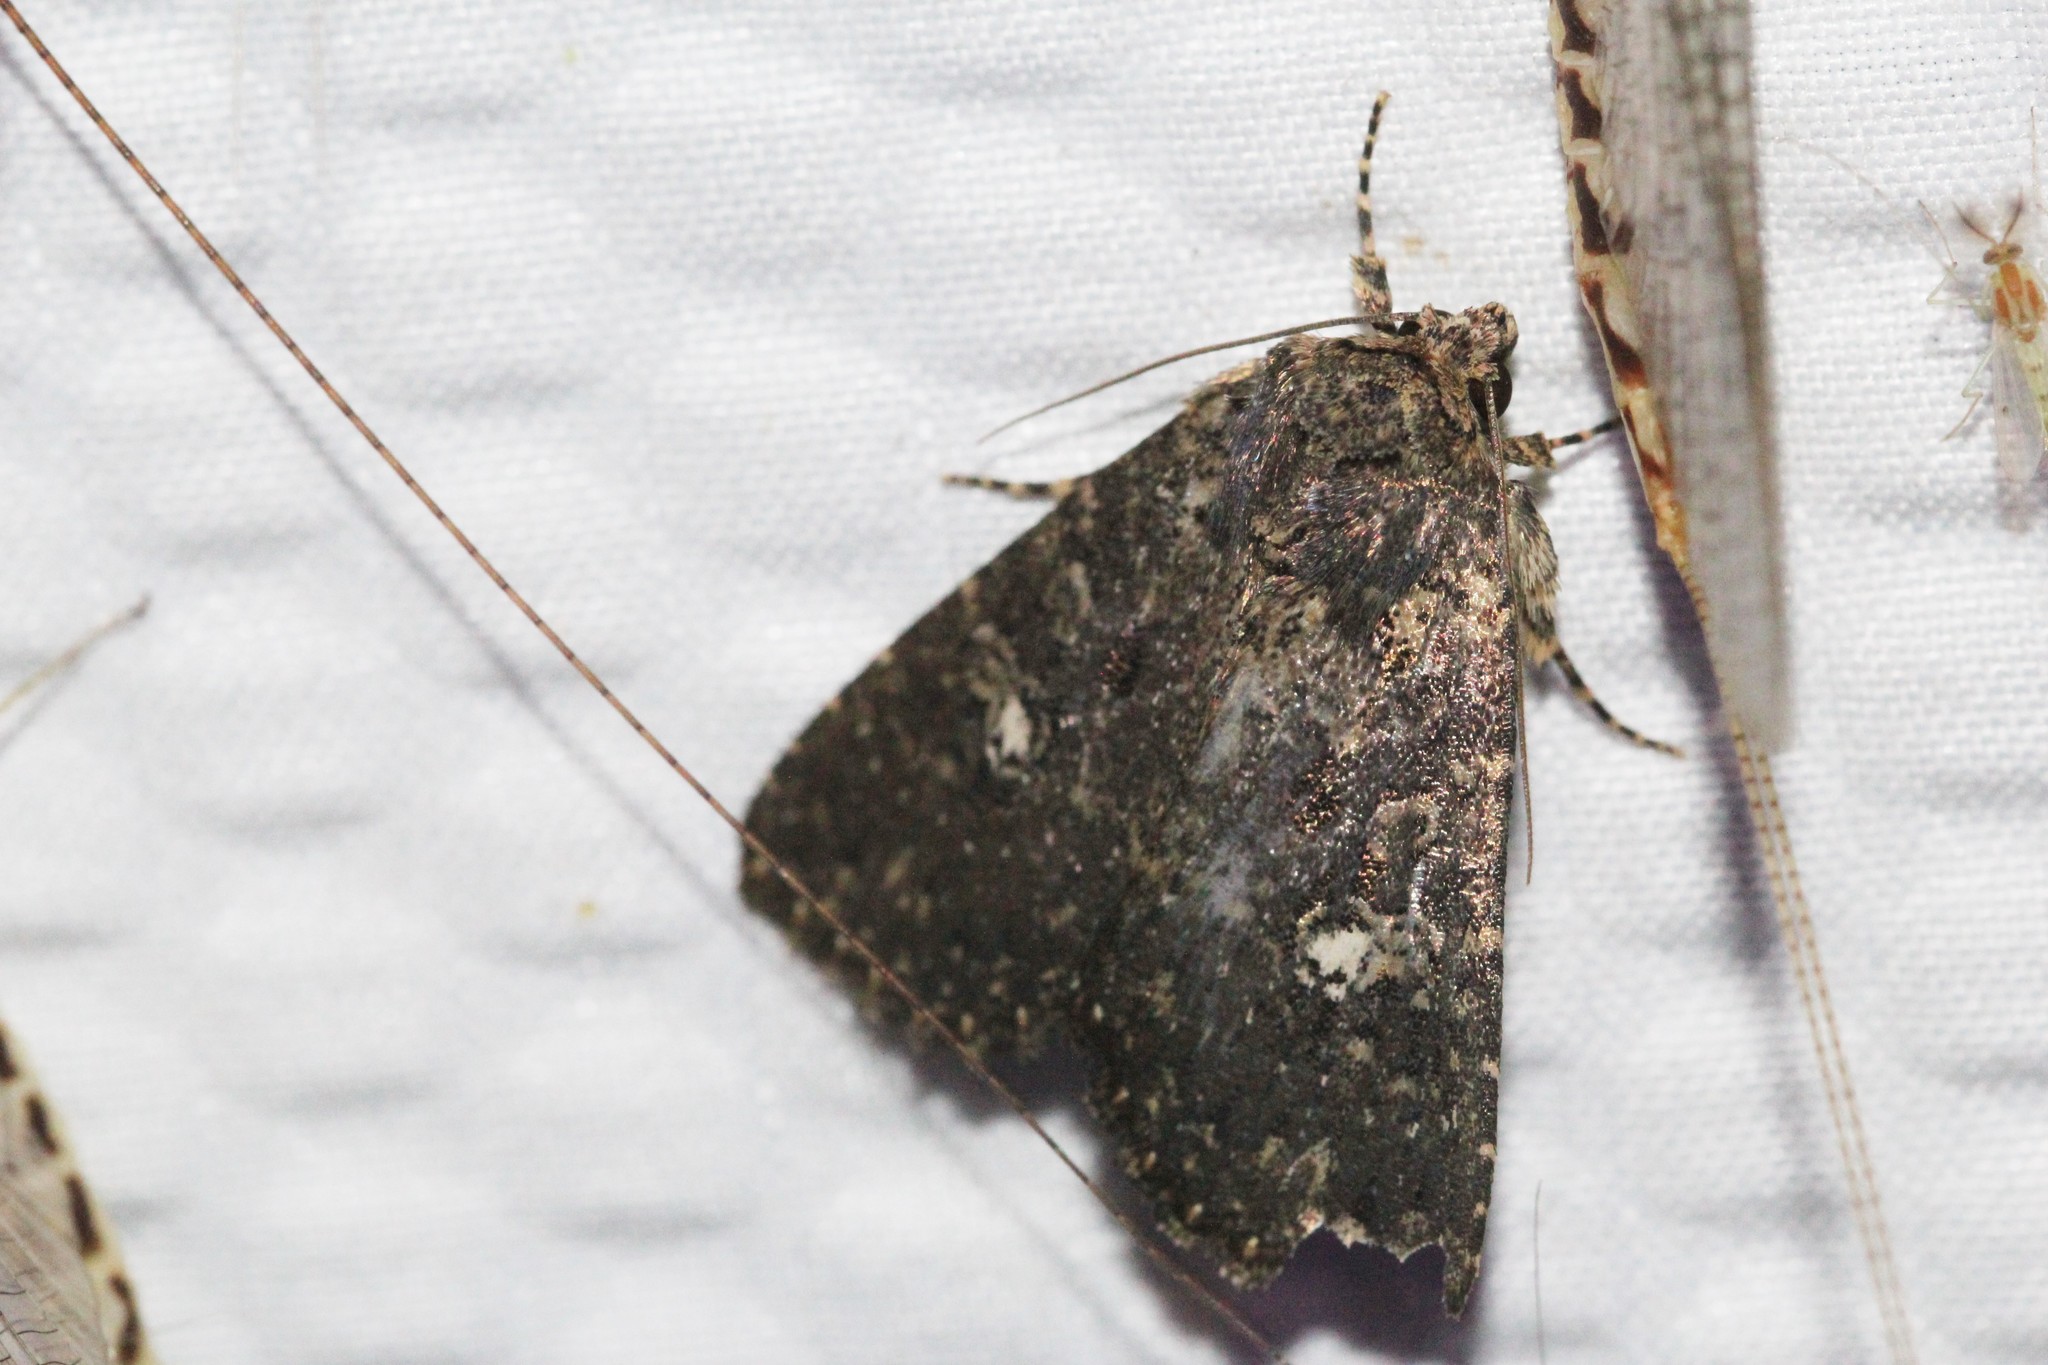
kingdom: Animalia
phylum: Arthropoda
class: Insecta
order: Lepidoptera
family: Noctuidae
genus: Condica
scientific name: Condica vecors
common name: Dusky groundling
